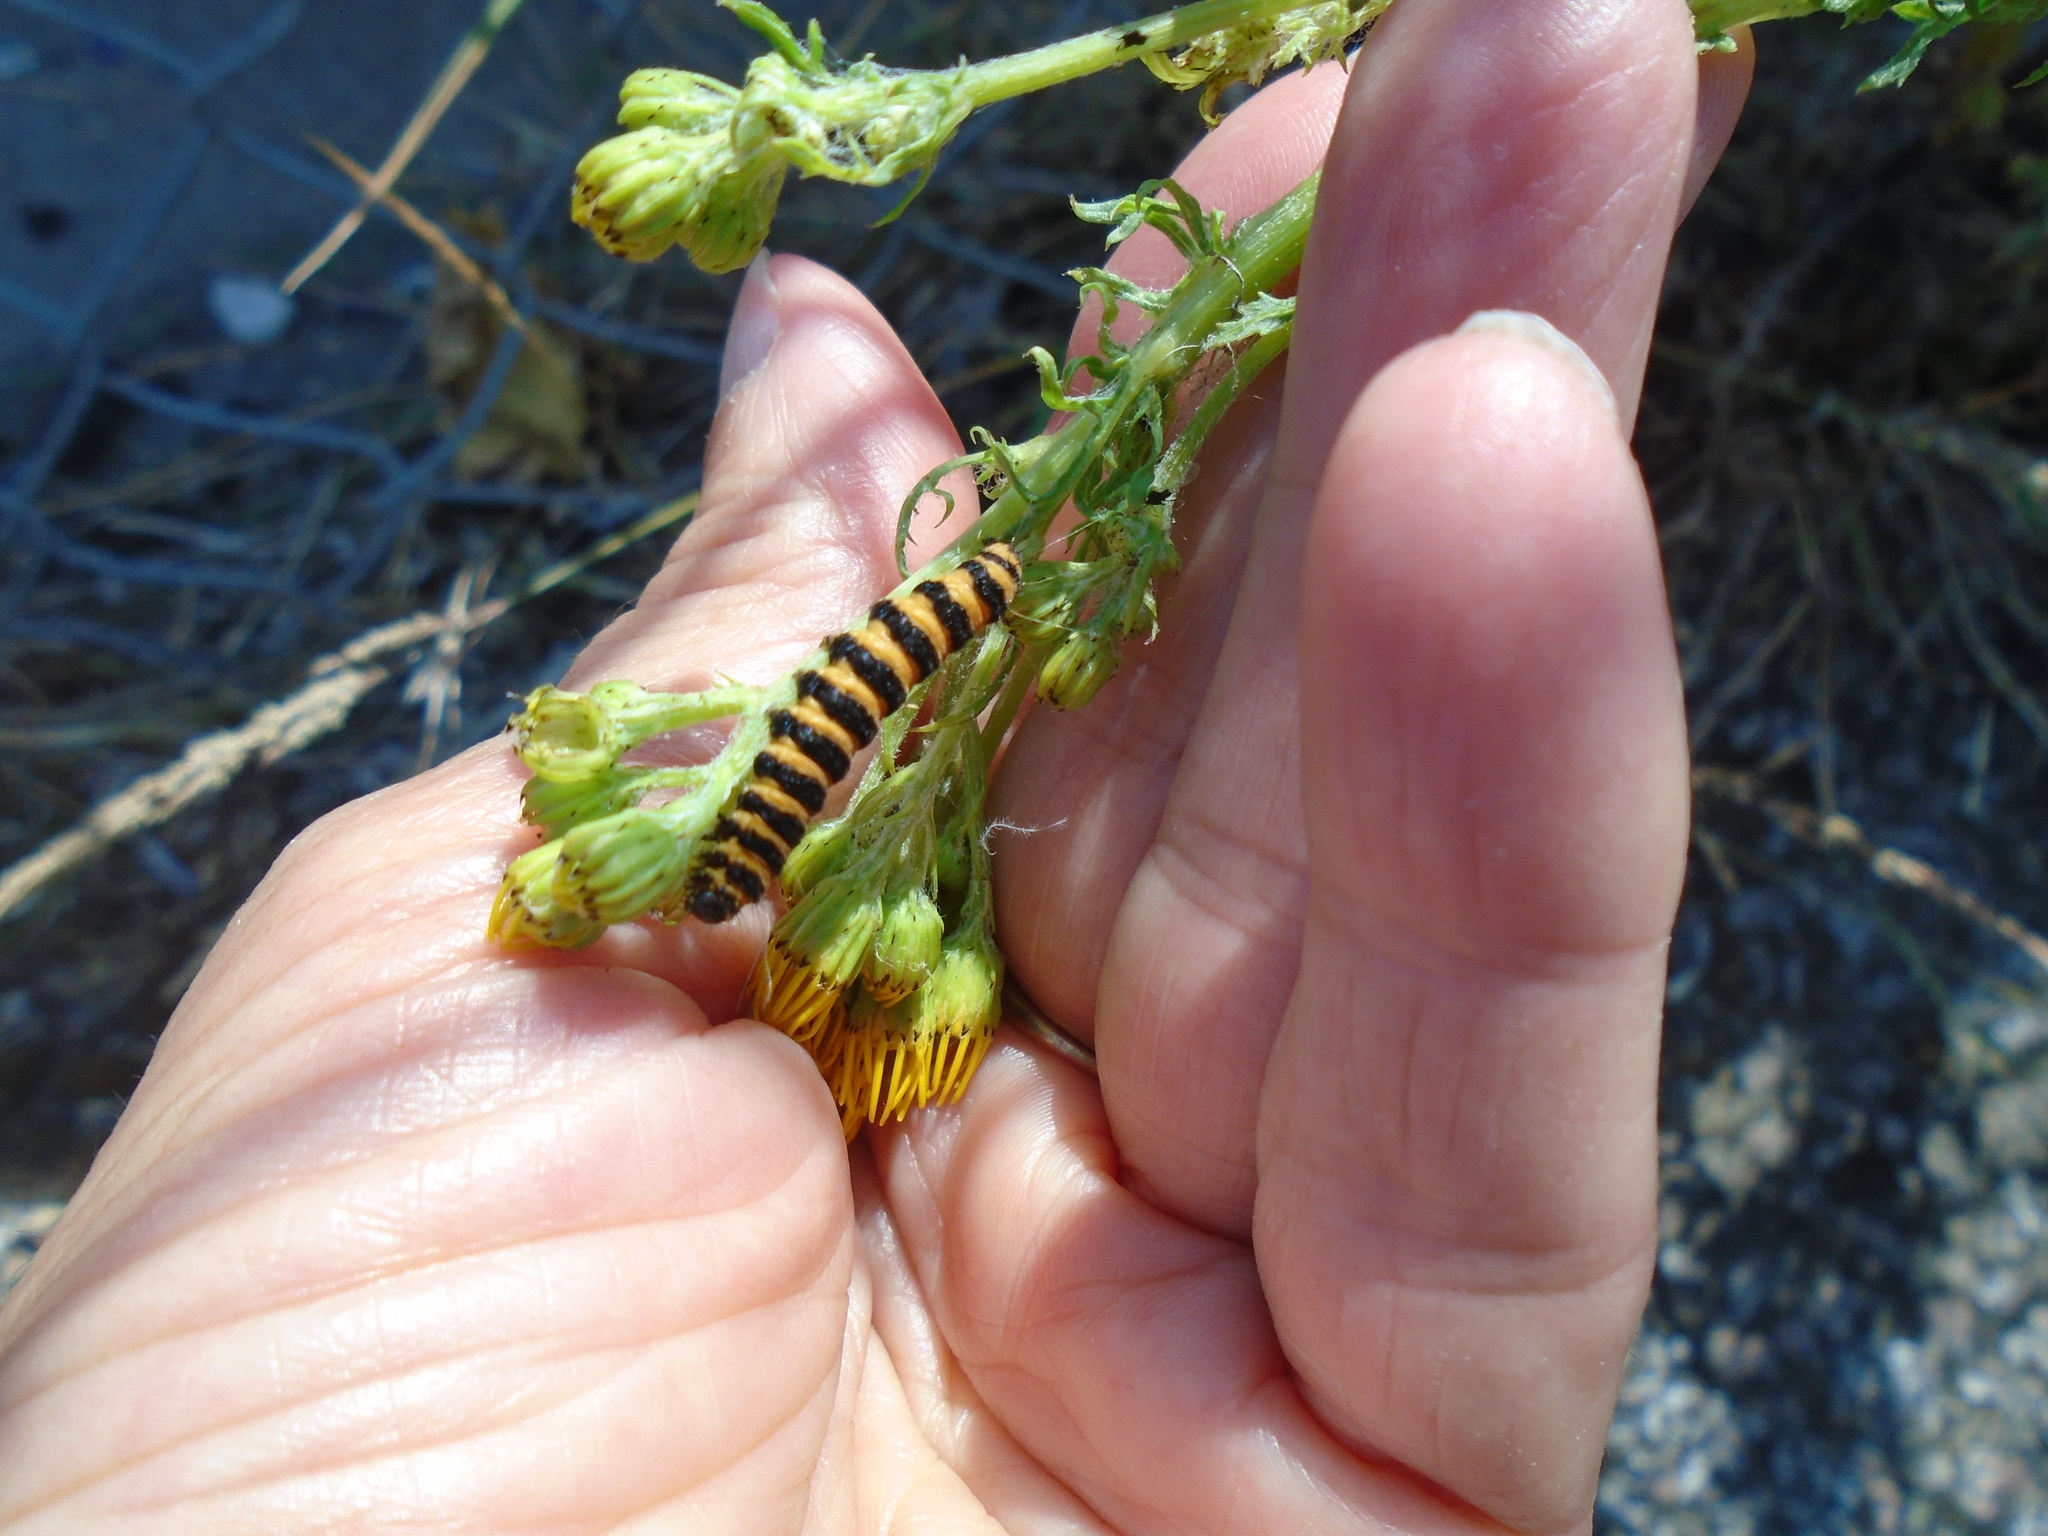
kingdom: Animalia
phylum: Arthropoda
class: Insecta
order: Lepidoptera
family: Erebidae
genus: Tyria
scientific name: Tyria jacobaeae
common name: Cinnabar
